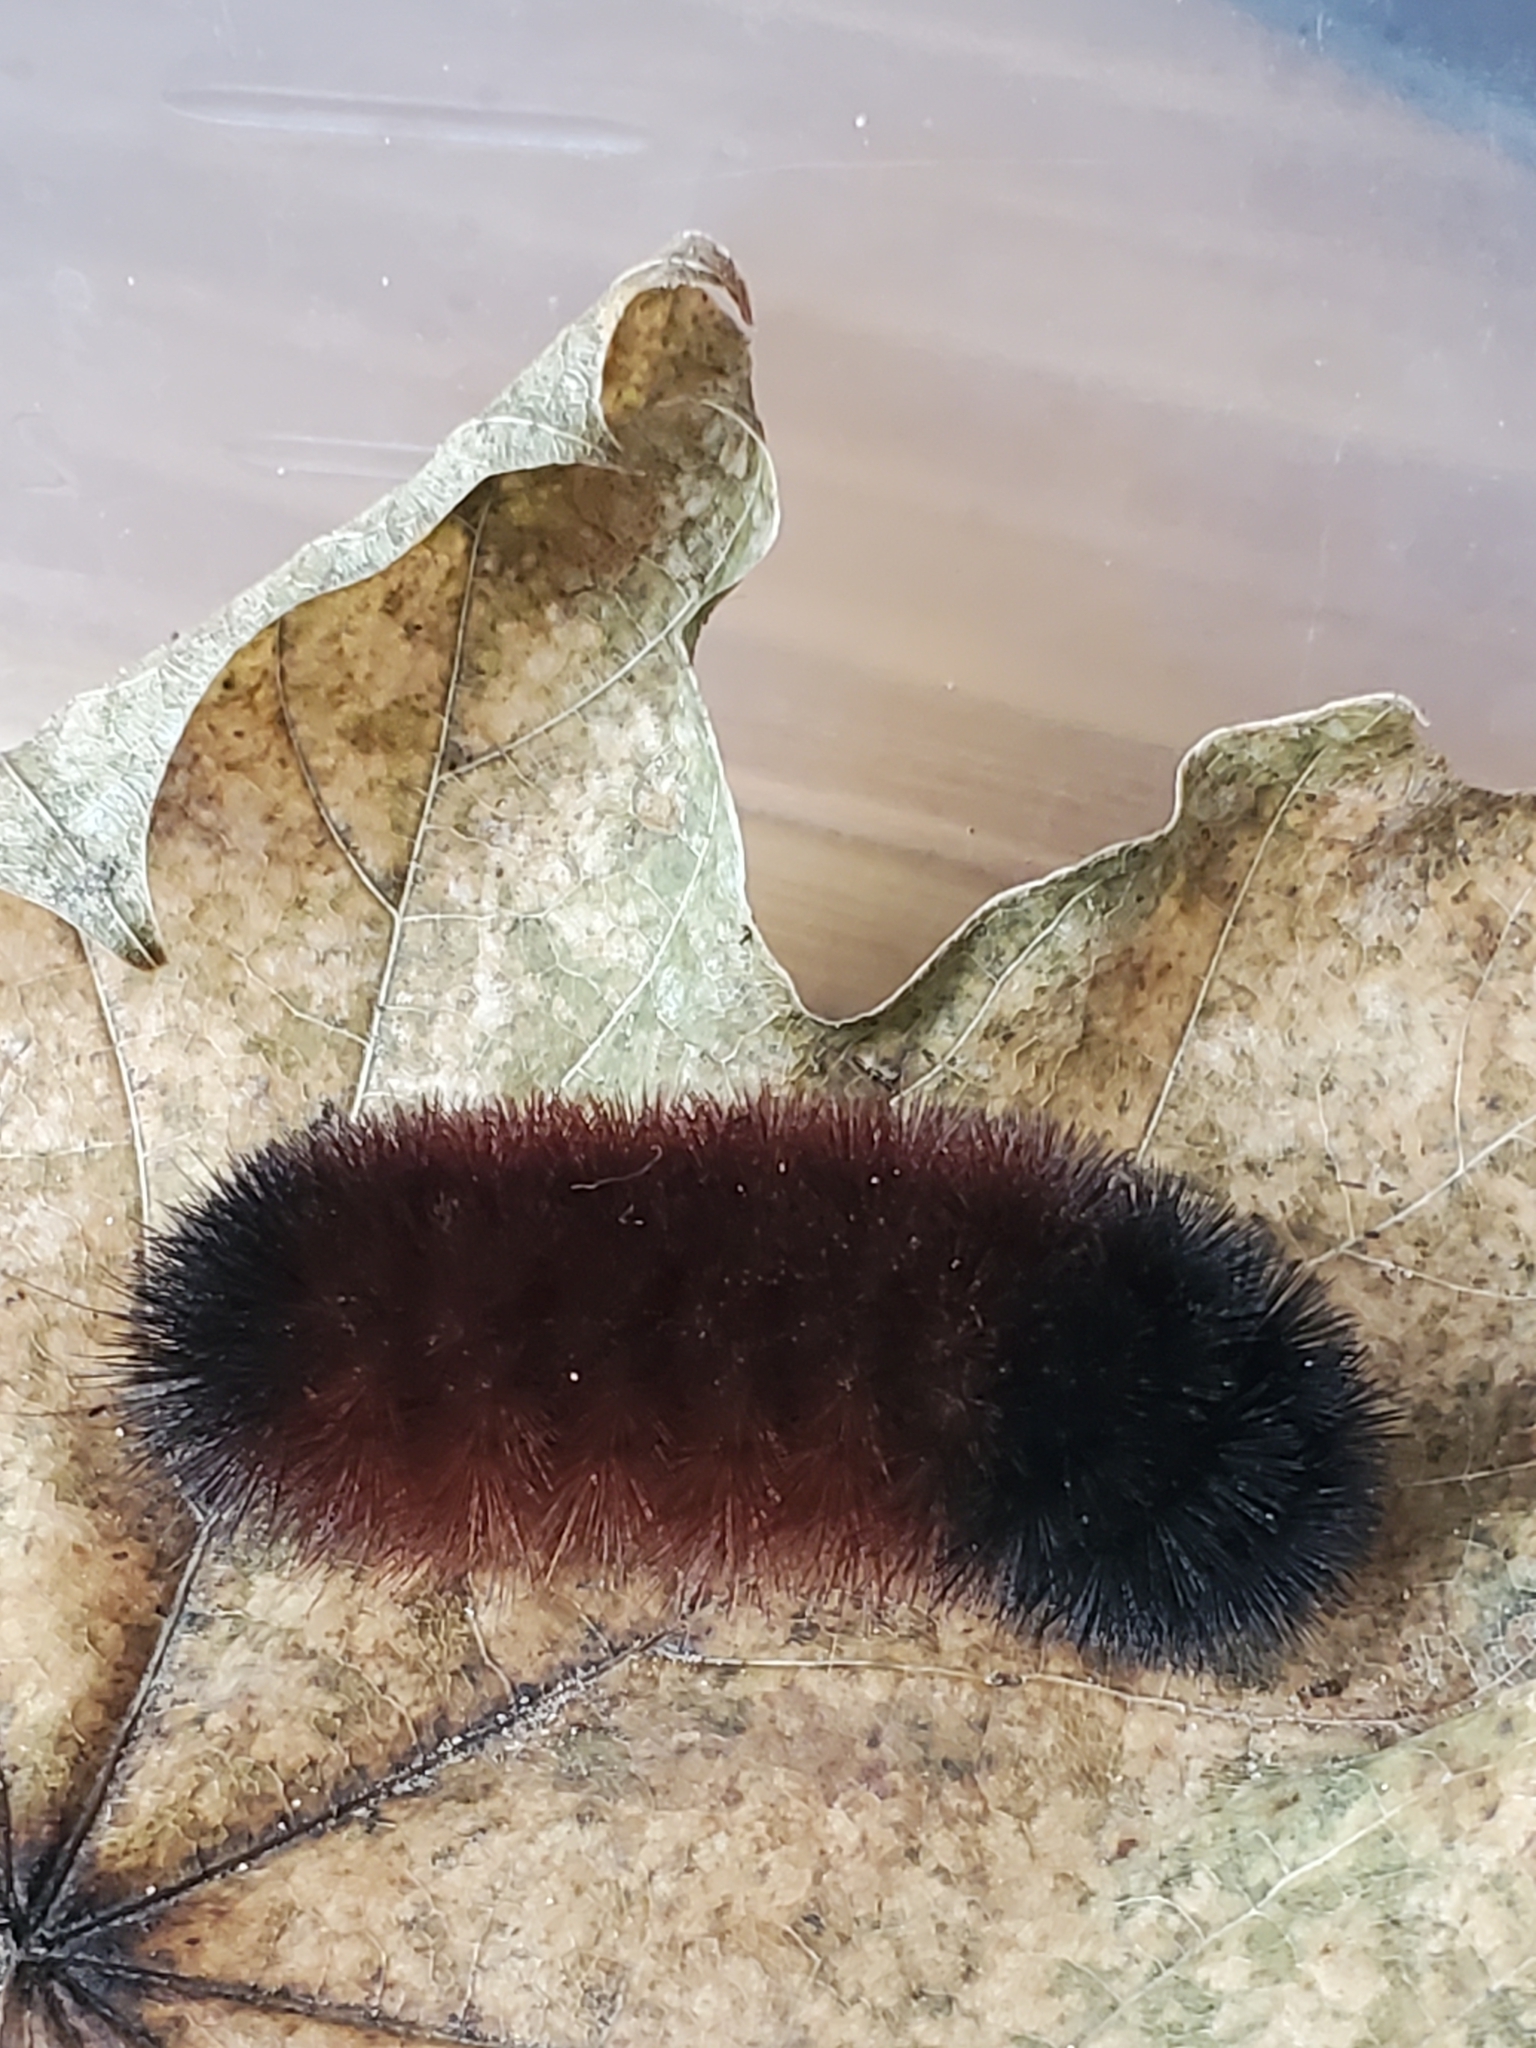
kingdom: Animalia
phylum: Arthropoda
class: Insecta
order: Lepidoptera
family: Erebidae
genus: Pyrrharctia
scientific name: Pyrrharctia isabella
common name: Isabella tiger moth
